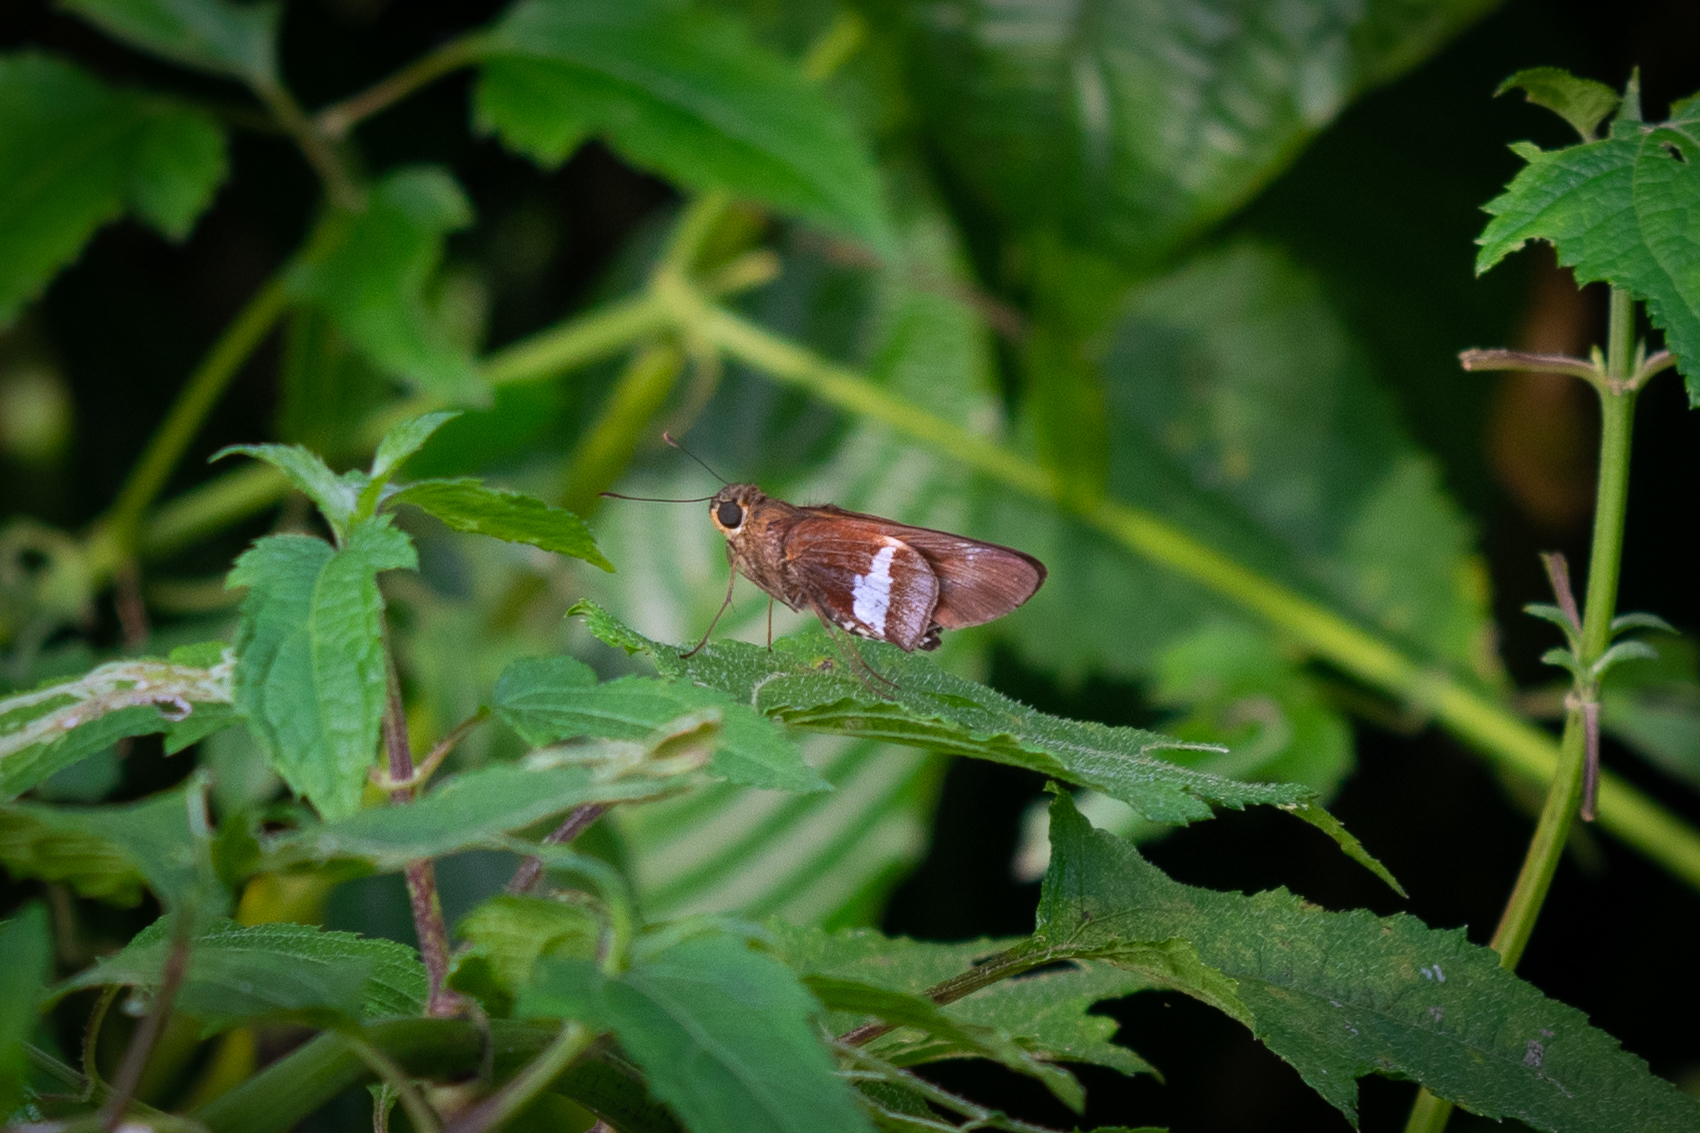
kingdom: Animalia
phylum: Arthropoda
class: Insecta
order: Lepidoptera
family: Hesperiidae
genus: Panoquina
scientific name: Panoquina evadnes
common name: Evadnes skipper
